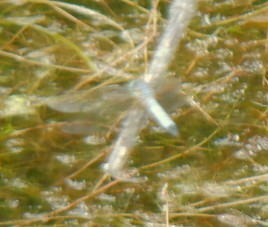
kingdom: Animalia
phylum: Arthropoda
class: Insecta
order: Odonata
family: Libellulidae
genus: Pachydiplax
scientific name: Pachydiplax longipennis
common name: Blue dasher
